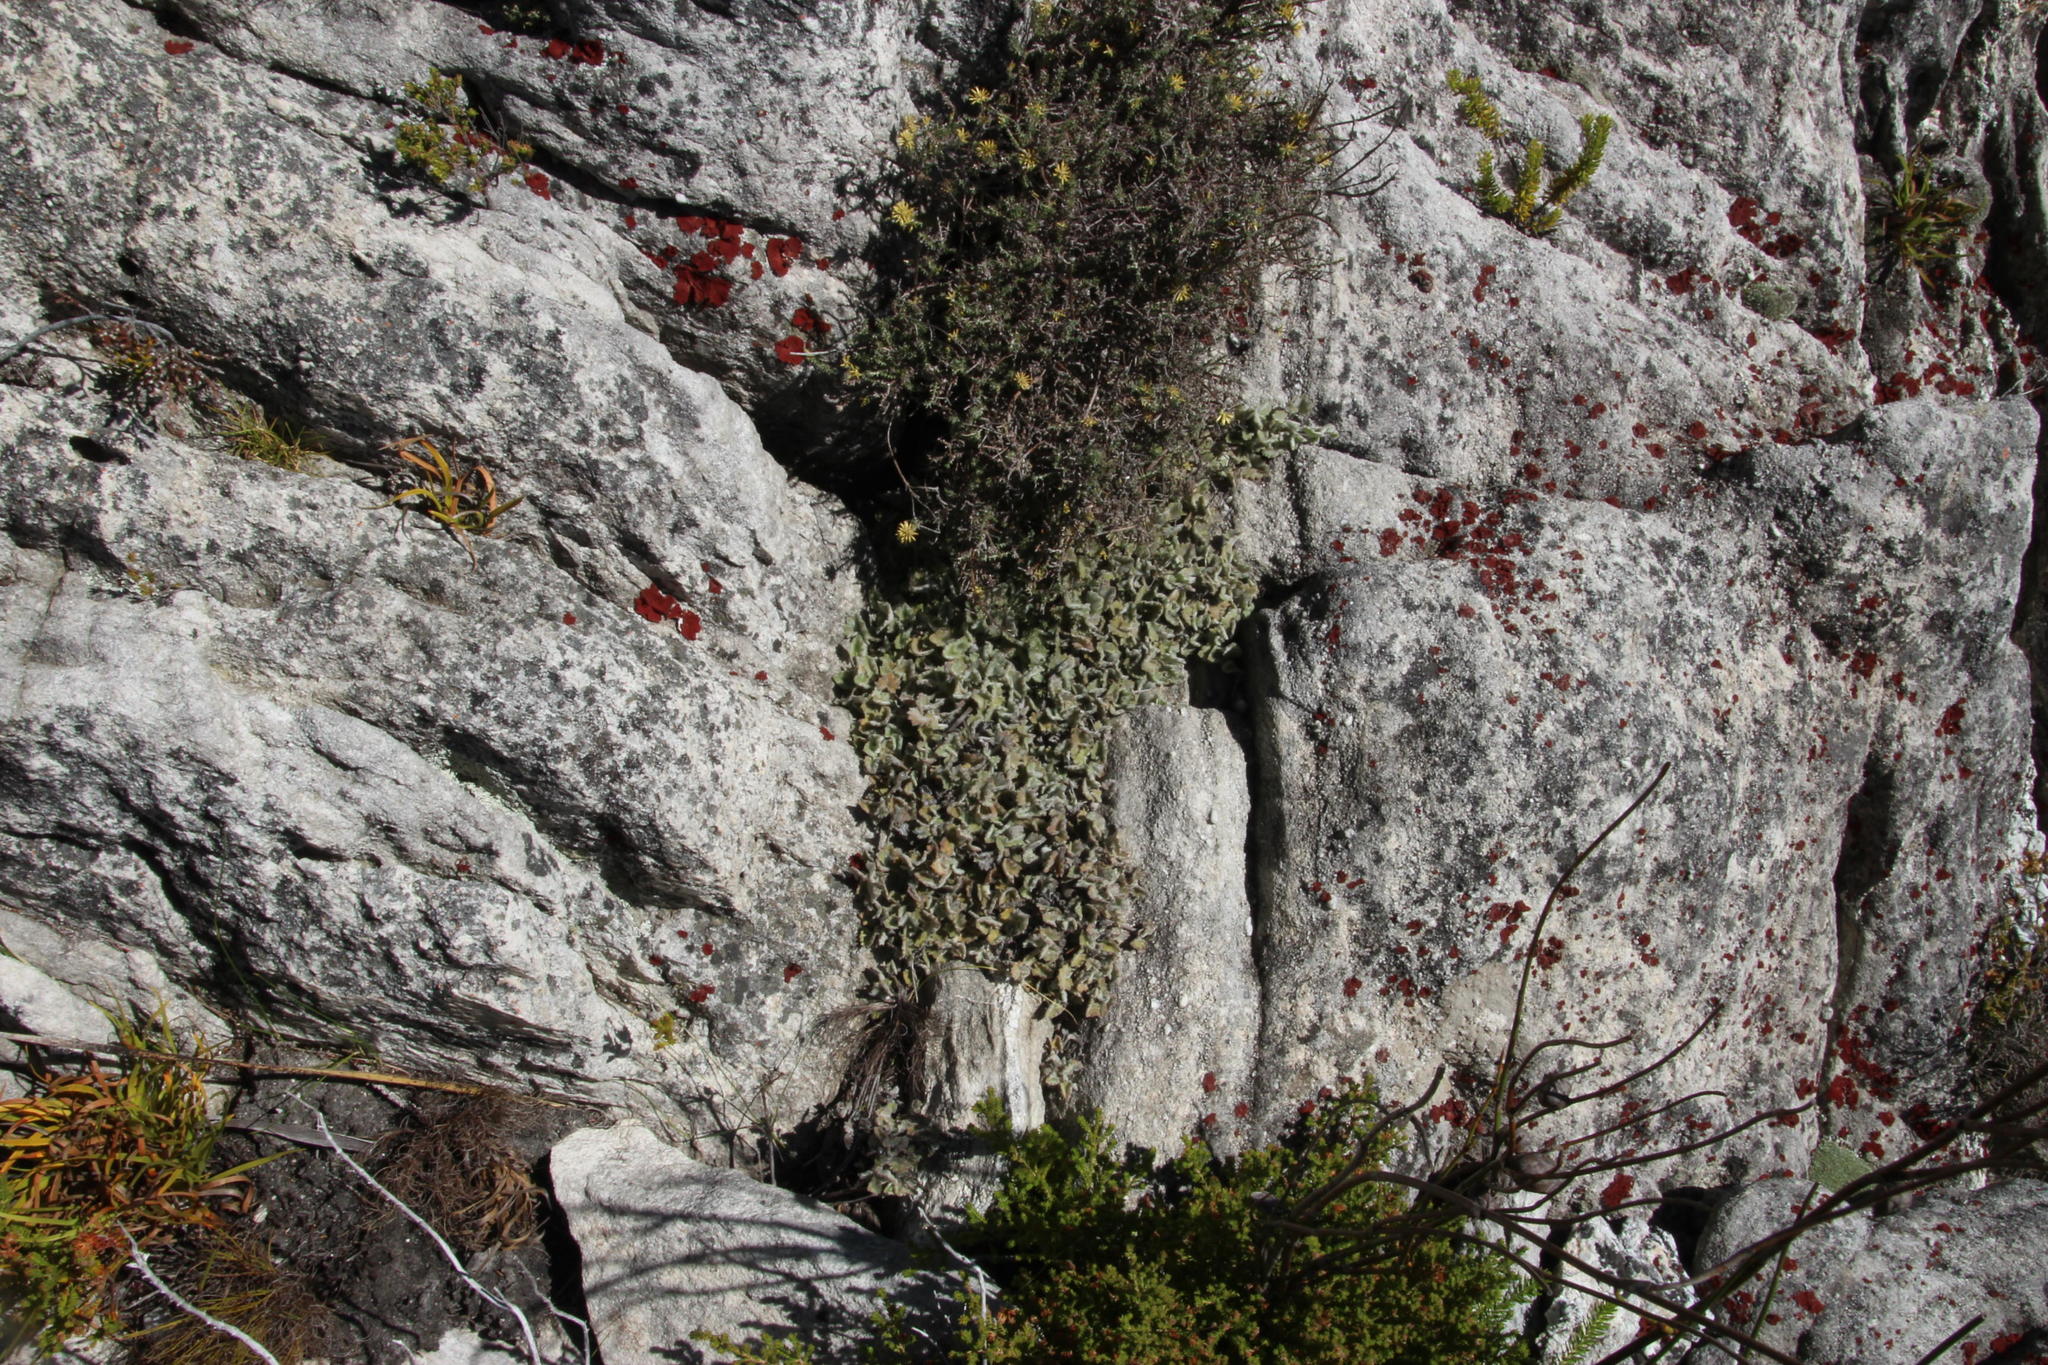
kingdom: Plantae
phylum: Tracheophyta
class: Magnoliopsida
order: Apiales
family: Apiaceae
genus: Centella
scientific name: Centella flexuosa
